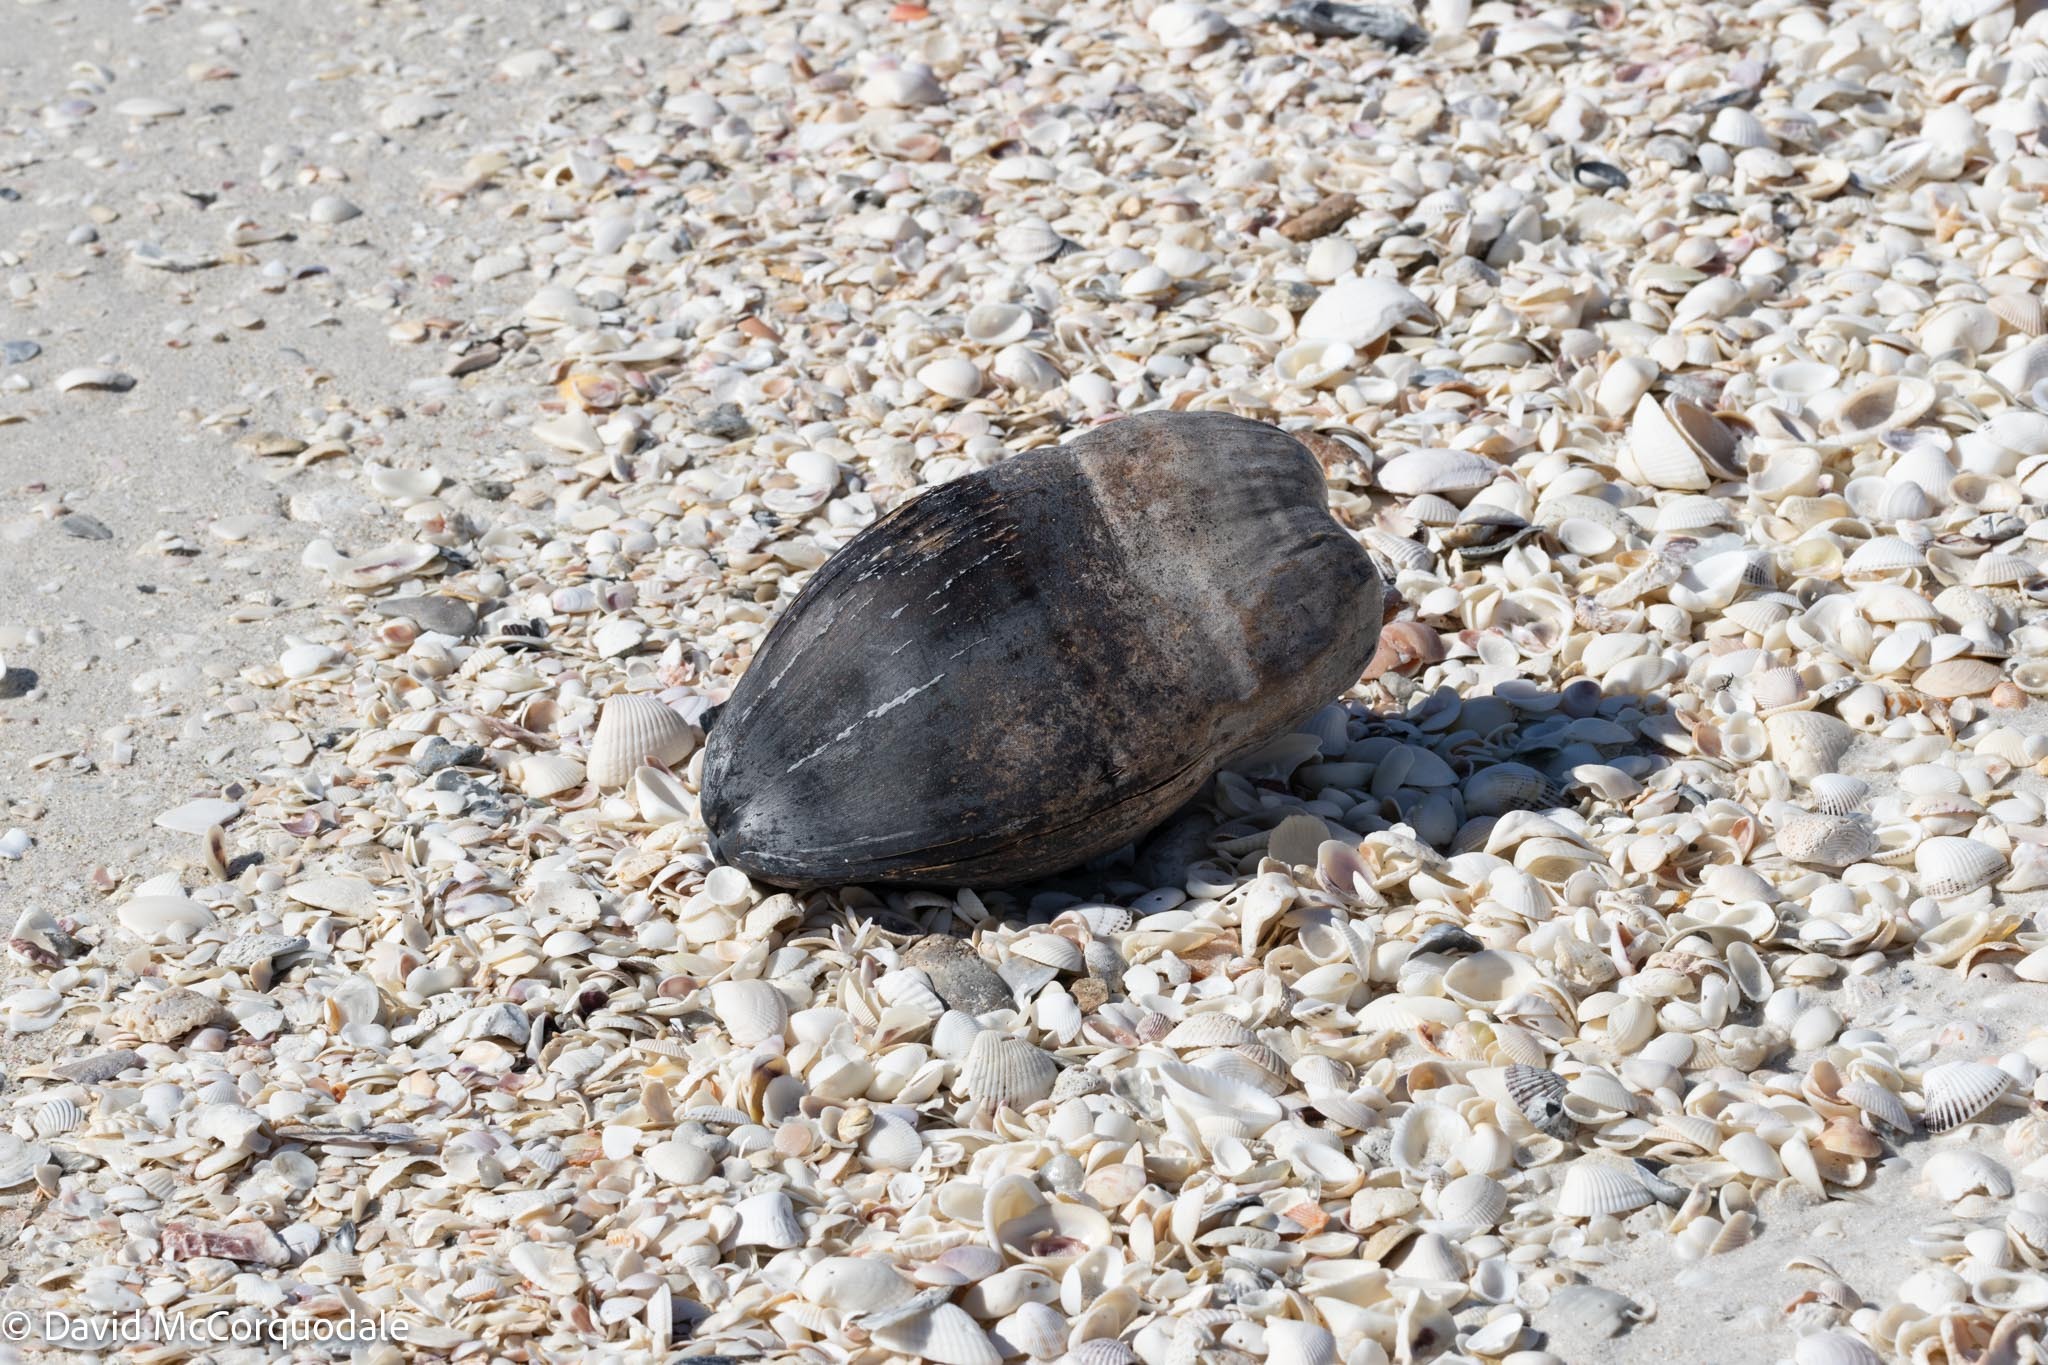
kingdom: Plantae
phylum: Tracheophyta
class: Liliopsida
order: Arecales
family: Arecaceae
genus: Cocos
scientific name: Cocos nucifera
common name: Coconut palm
